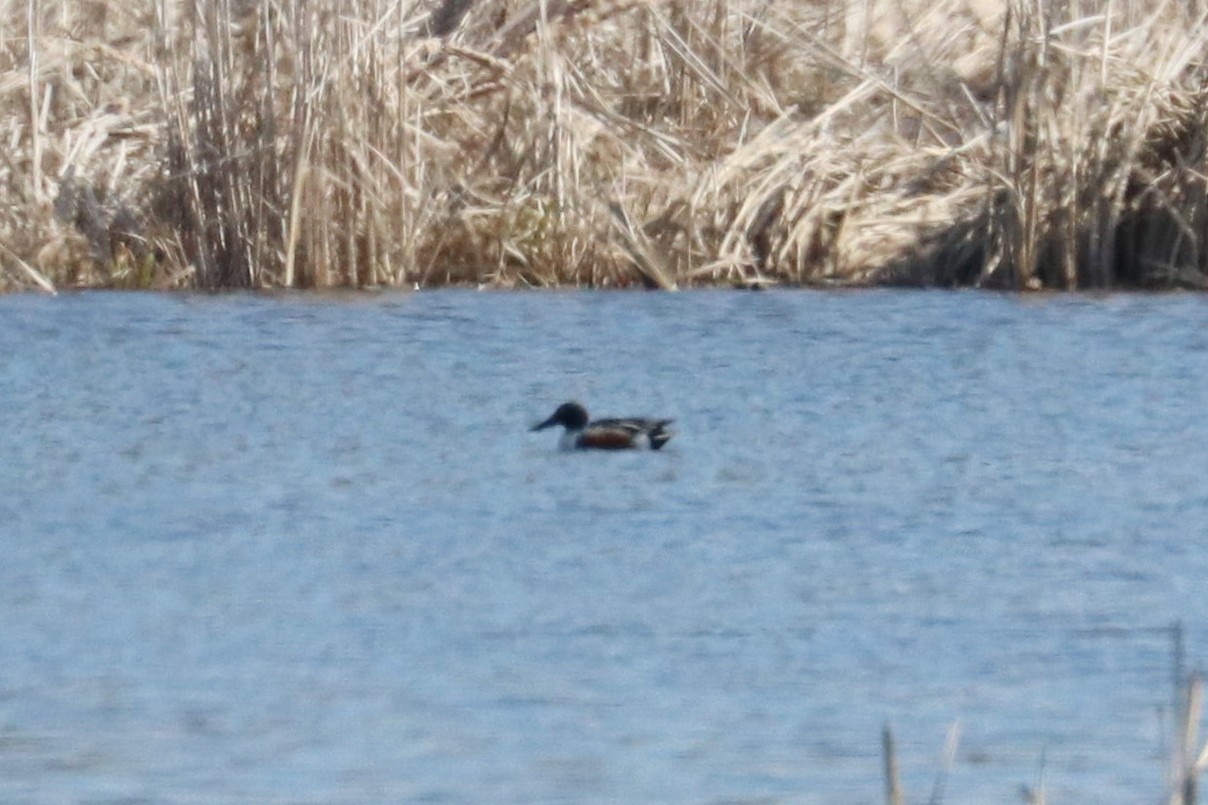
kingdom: Animalia
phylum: Chordata
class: Aves
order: Anseriformes
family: Anatidae
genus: Spatula
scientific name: Spatula clypeata
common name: Northern shoveler
